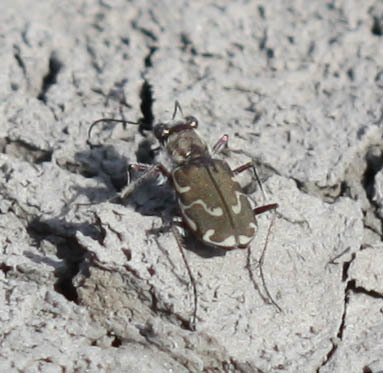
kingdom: Animalia
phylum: Arthropoda
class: Insecta
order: Coleoptera
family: Carabidae
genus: Cicindela
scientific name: Cicindela repanda
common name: Bronzed tiger beetle
